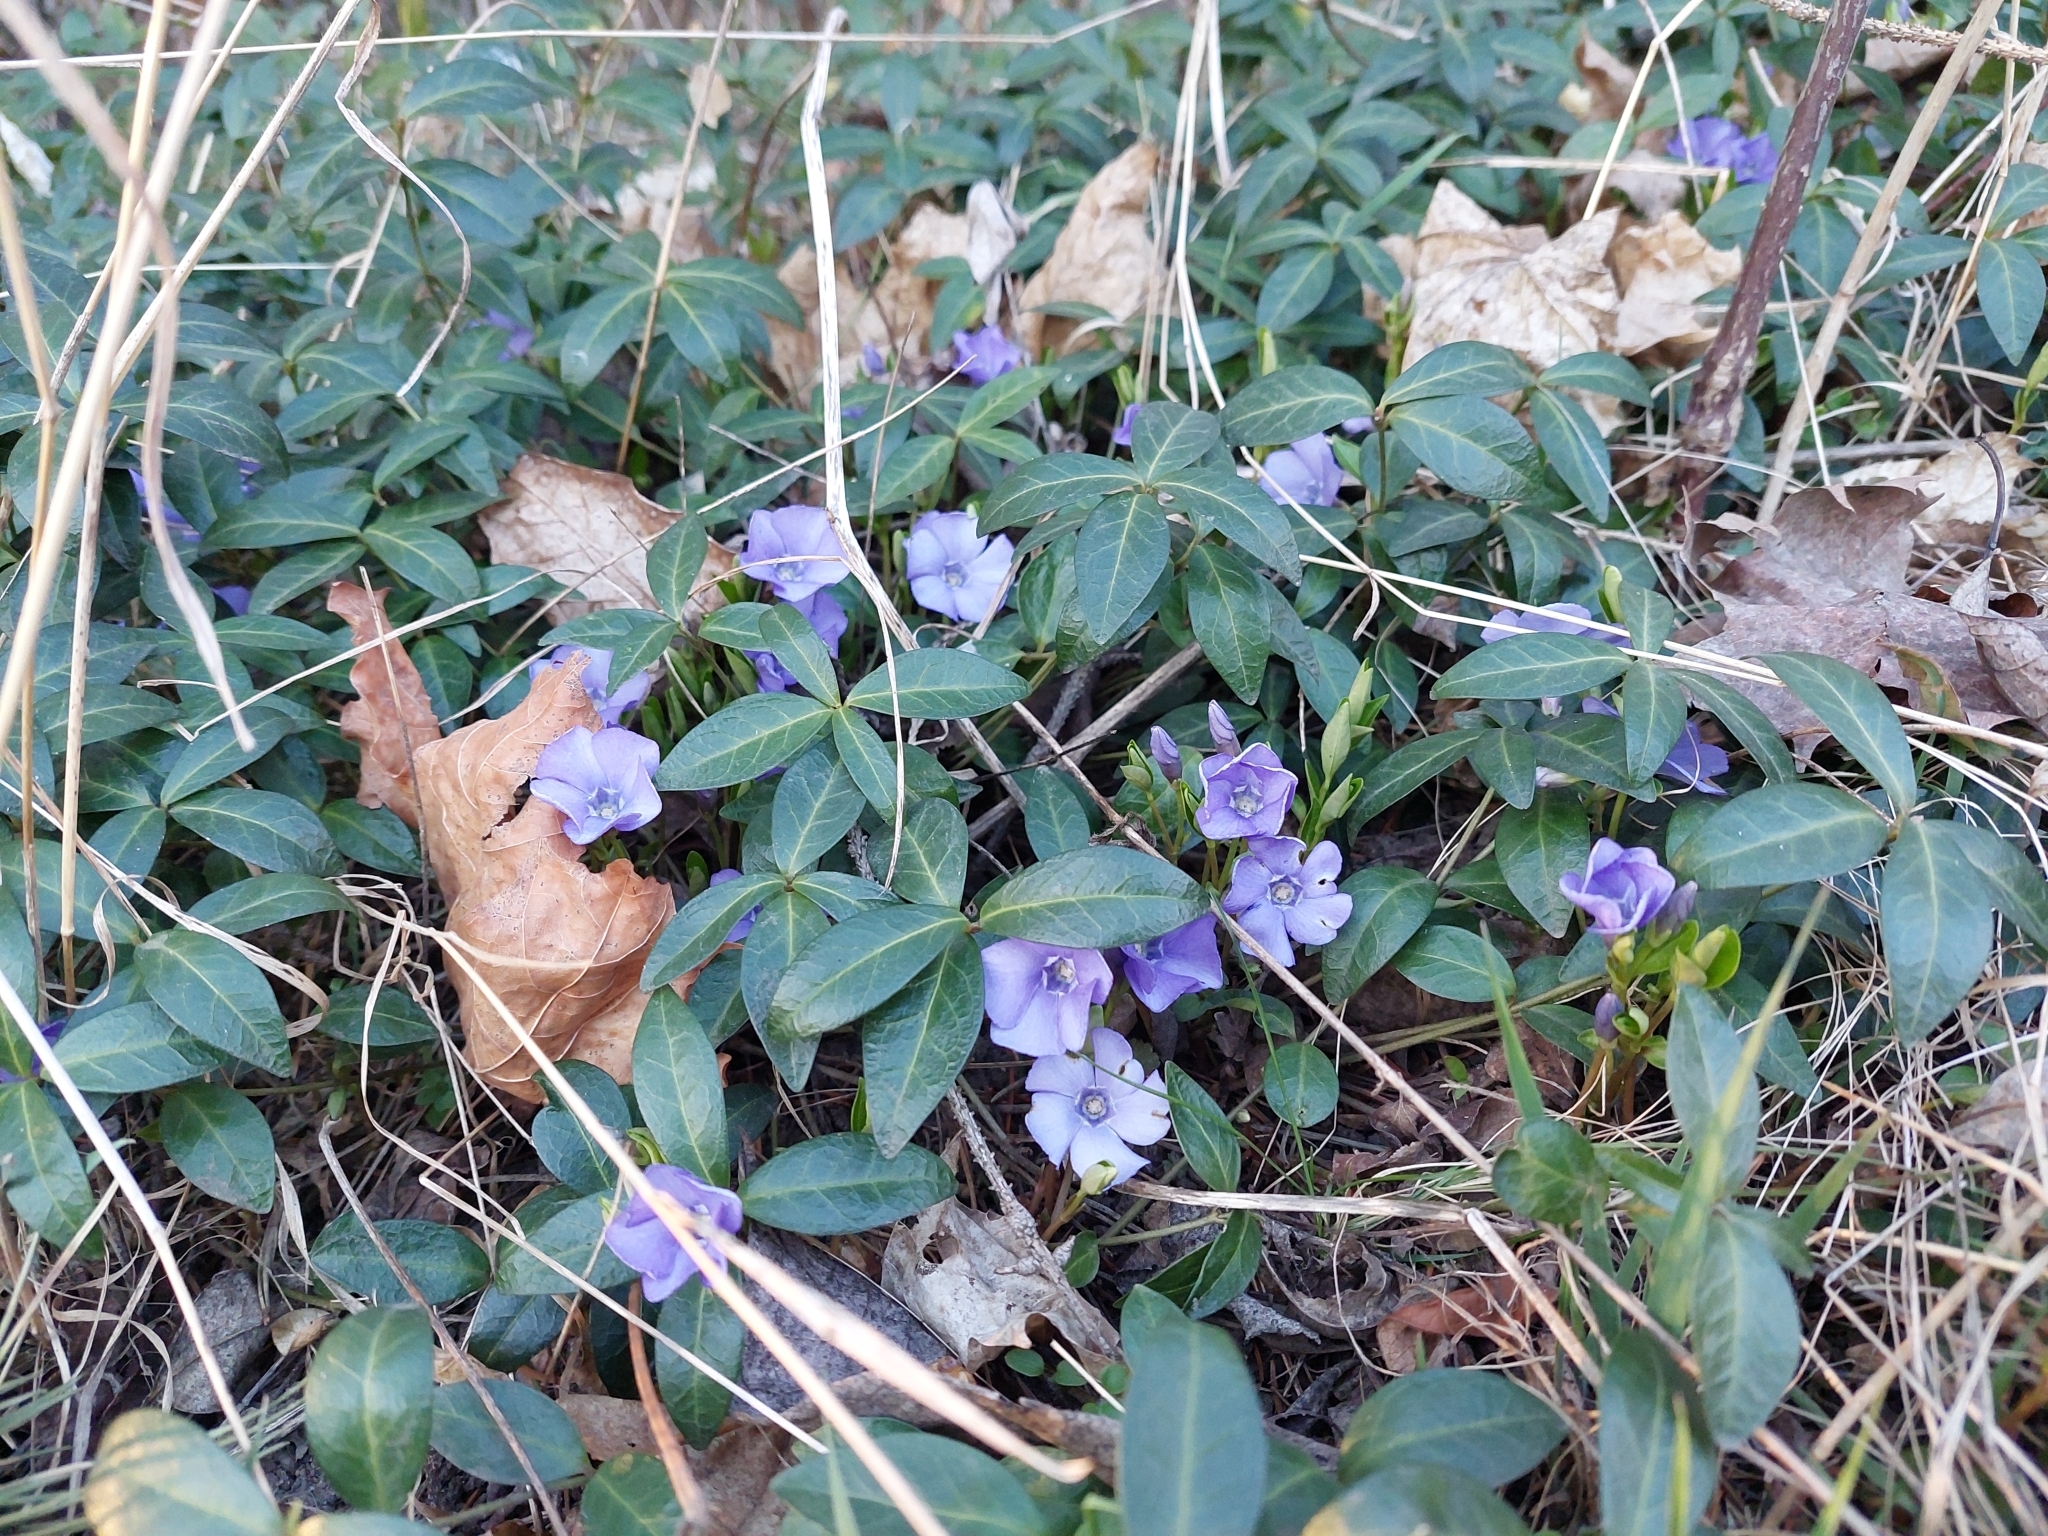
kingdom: Plantae
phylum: Tracheophyta
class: Magnoliopsida
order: Gentianales
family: Apocynaceae
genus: Vinca
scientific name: Vinca minor
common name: Lesser periwinkle
